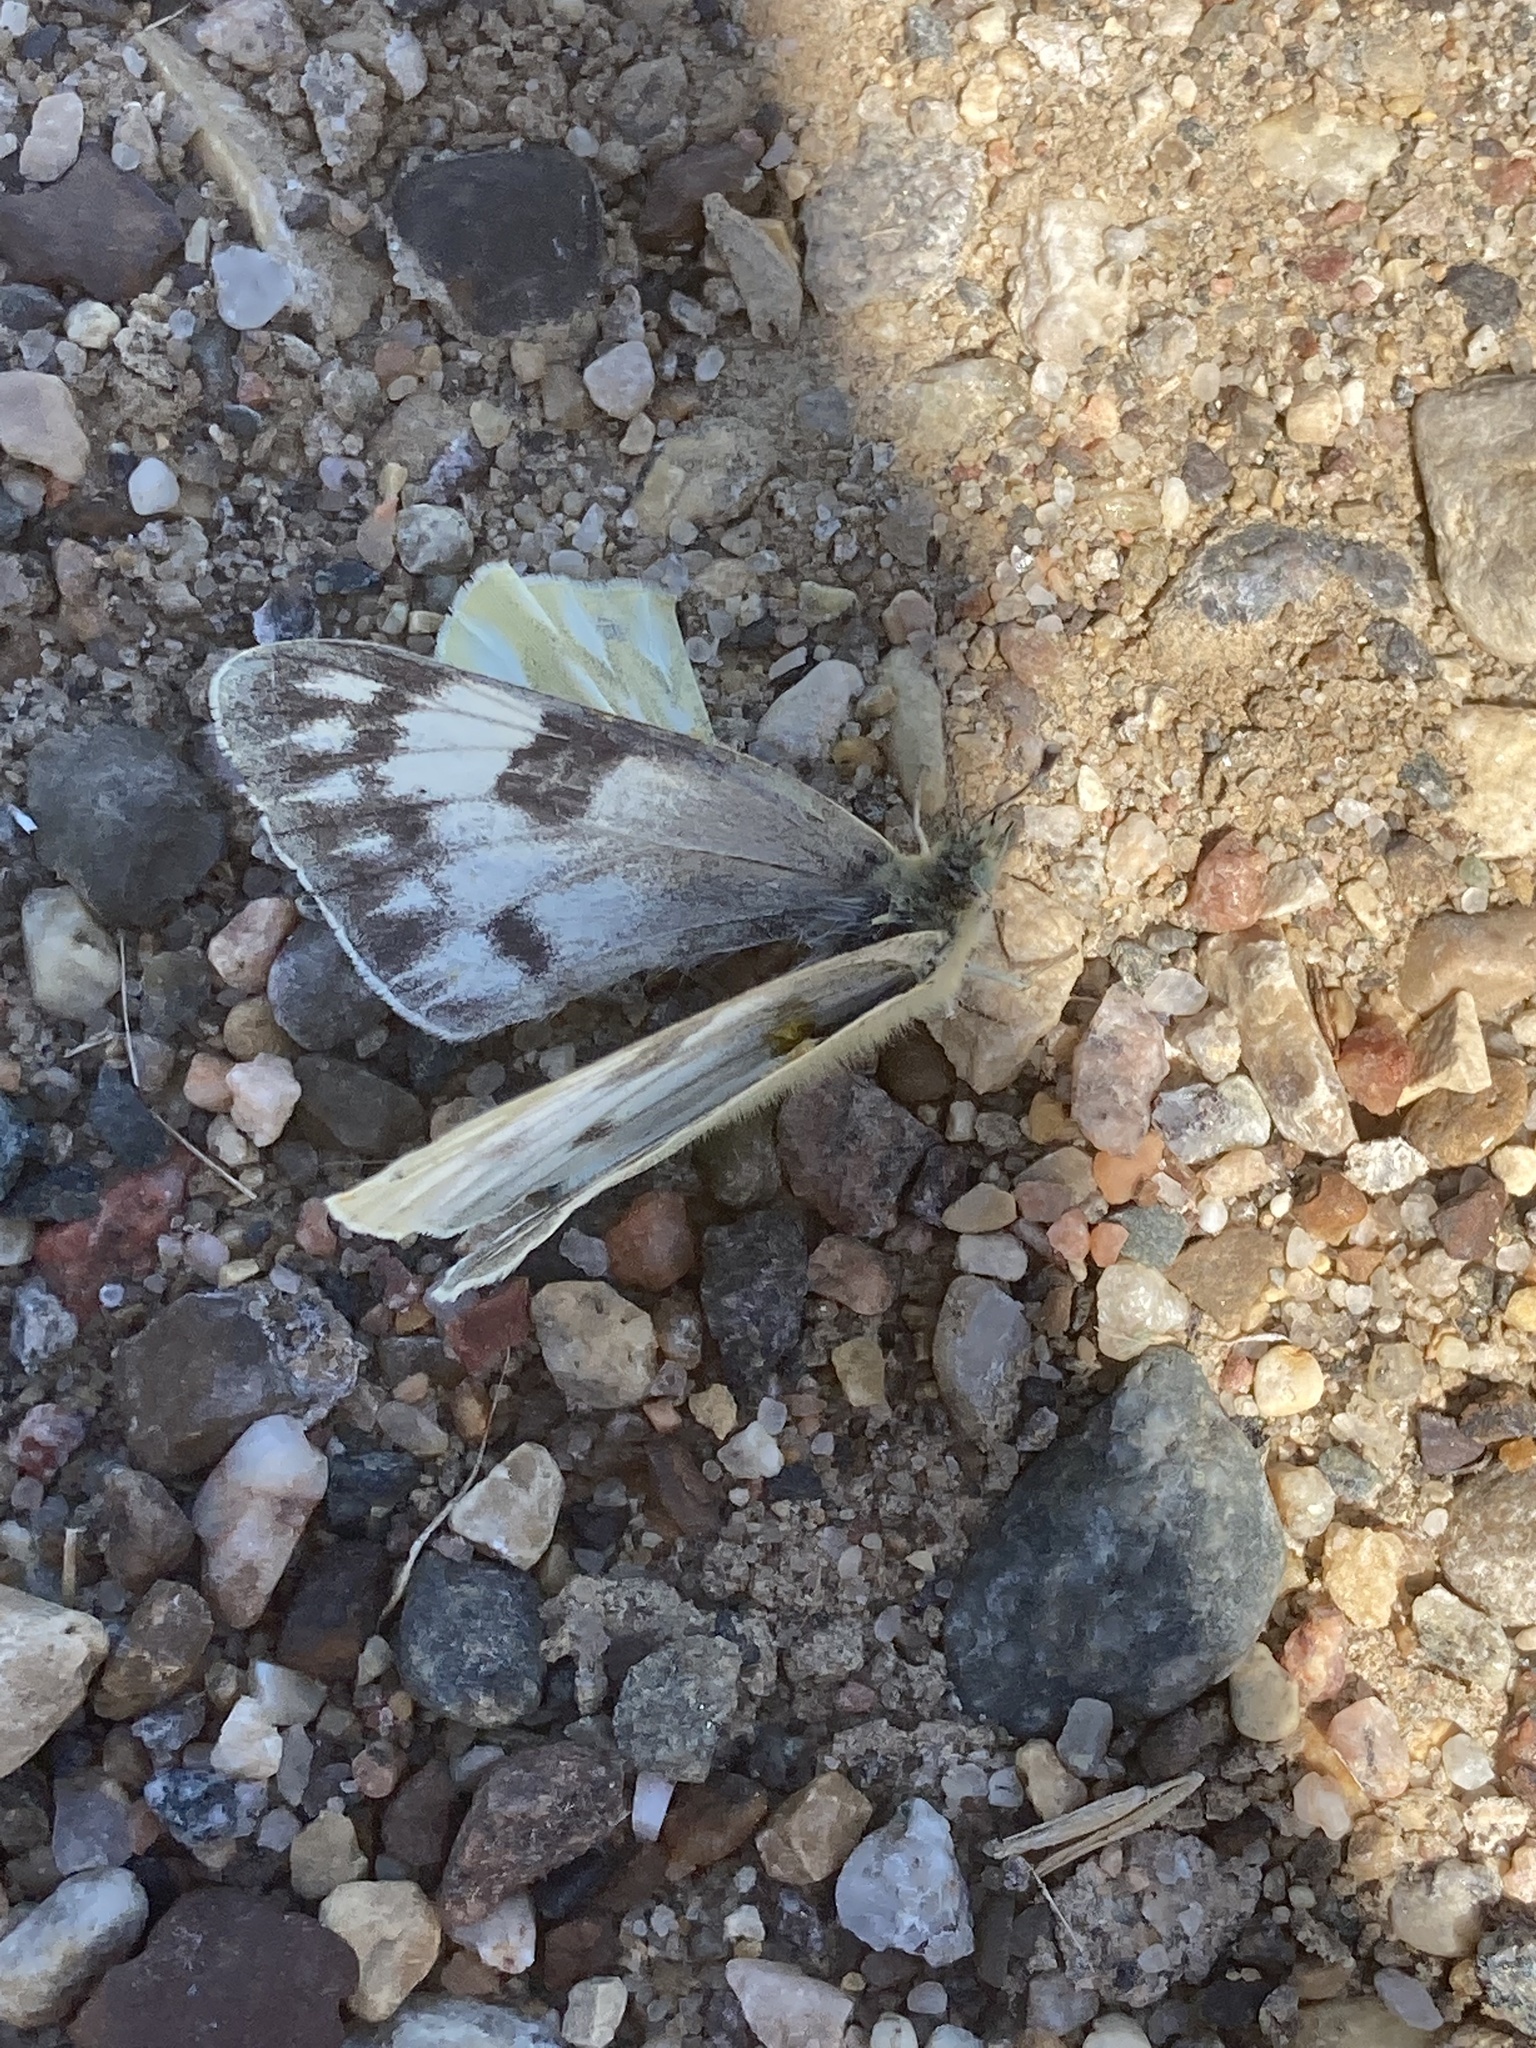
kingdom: Animalia
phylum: Arthropoda
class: Insecta
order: Lepidoptera
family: Pieridae
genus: Pontia
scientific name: Pontia occidentalis
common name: Western white
